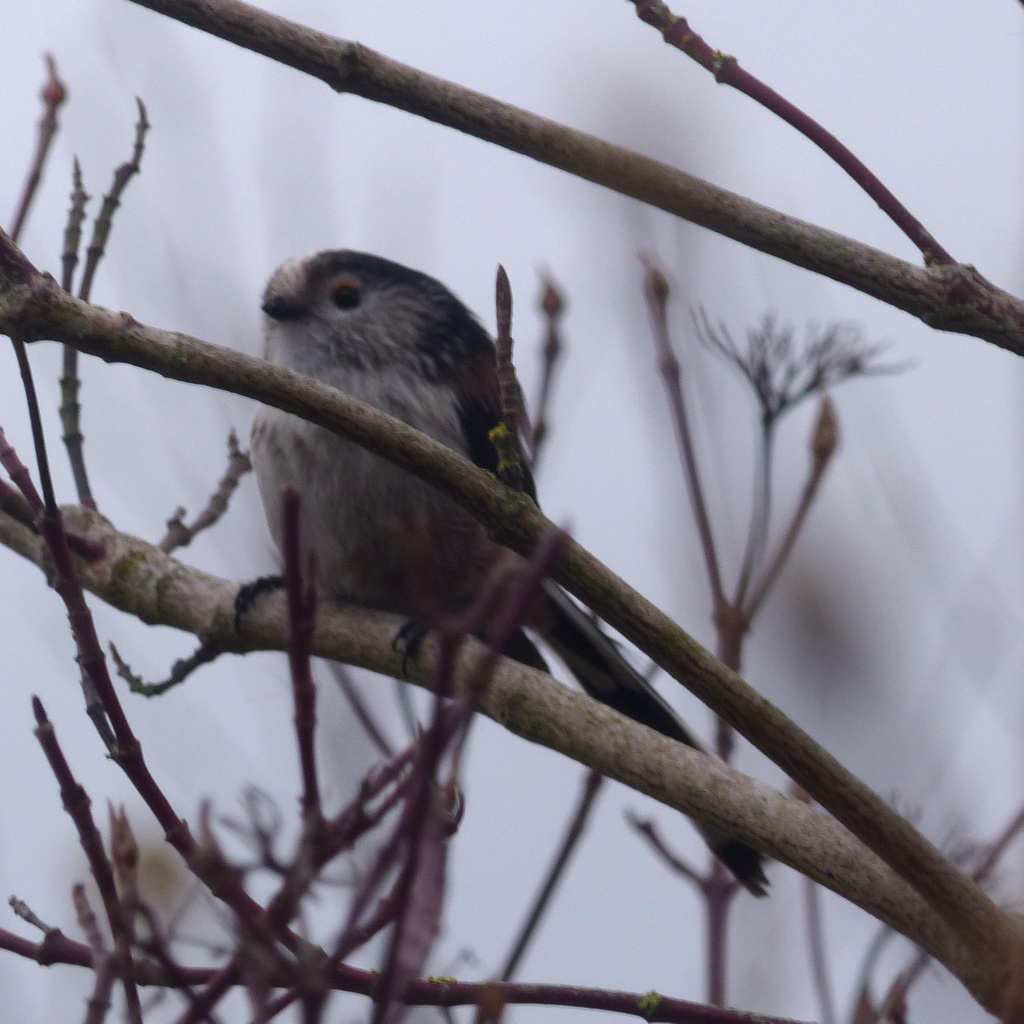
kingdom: Animalia
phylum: Chordata
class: Aves
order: Passeriformes
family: Aegithalidae
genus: Aegithalos
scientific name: Aegithalos caudatus
